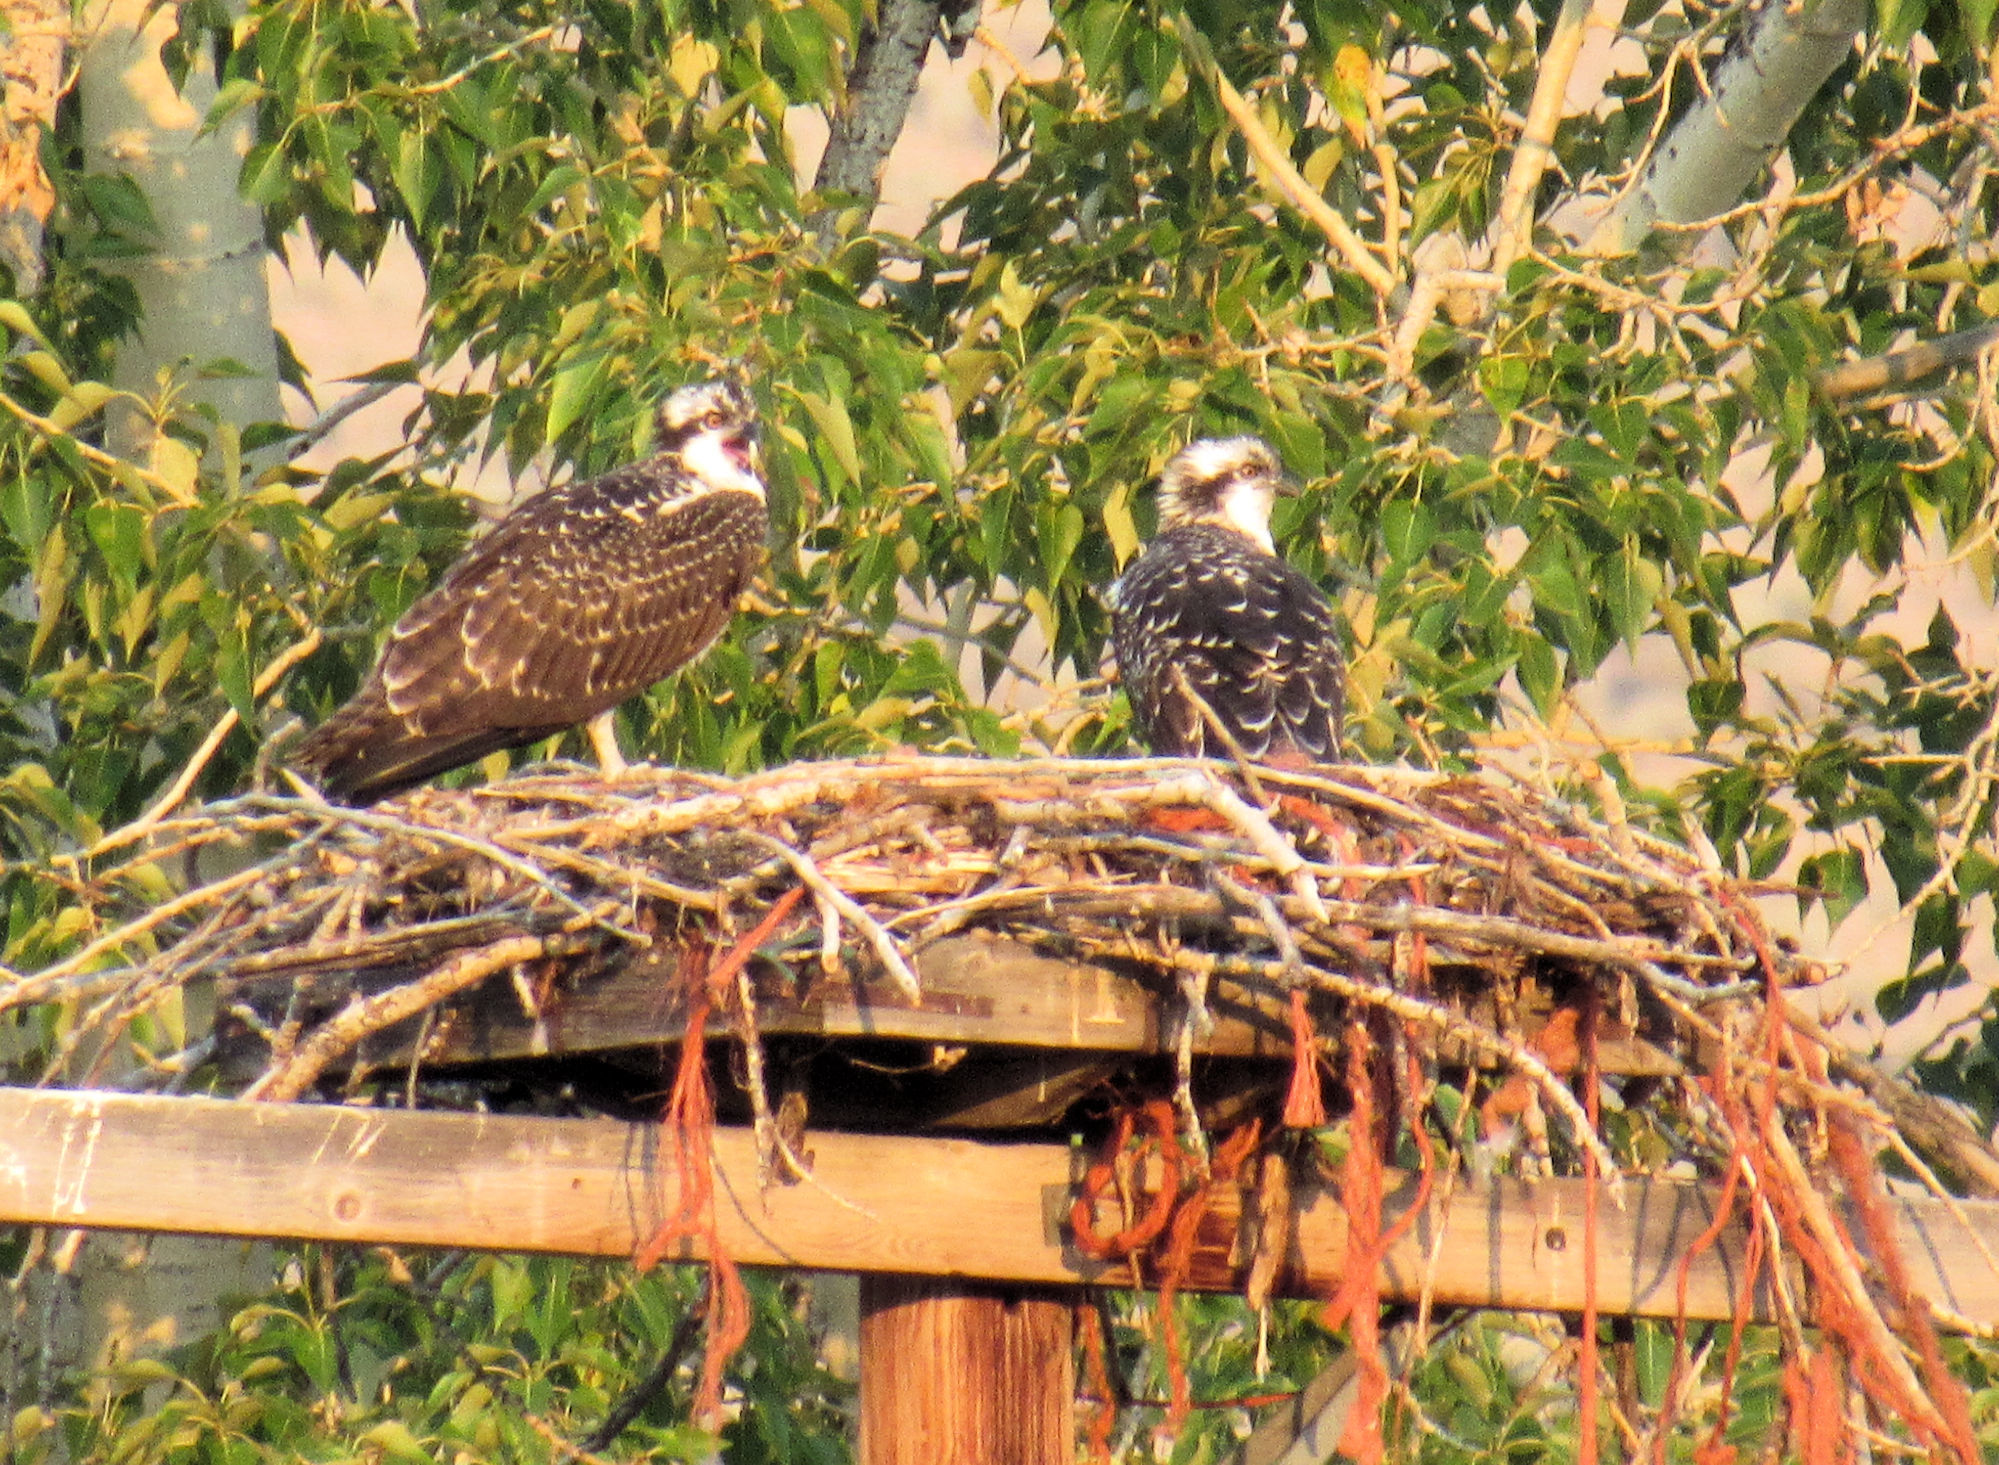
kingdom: Animalia
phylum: Chordata
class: Aves
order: Accipitriformes
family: Pandionidae
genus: Pandion
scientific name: Pandion haliaetus
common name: Osprey
